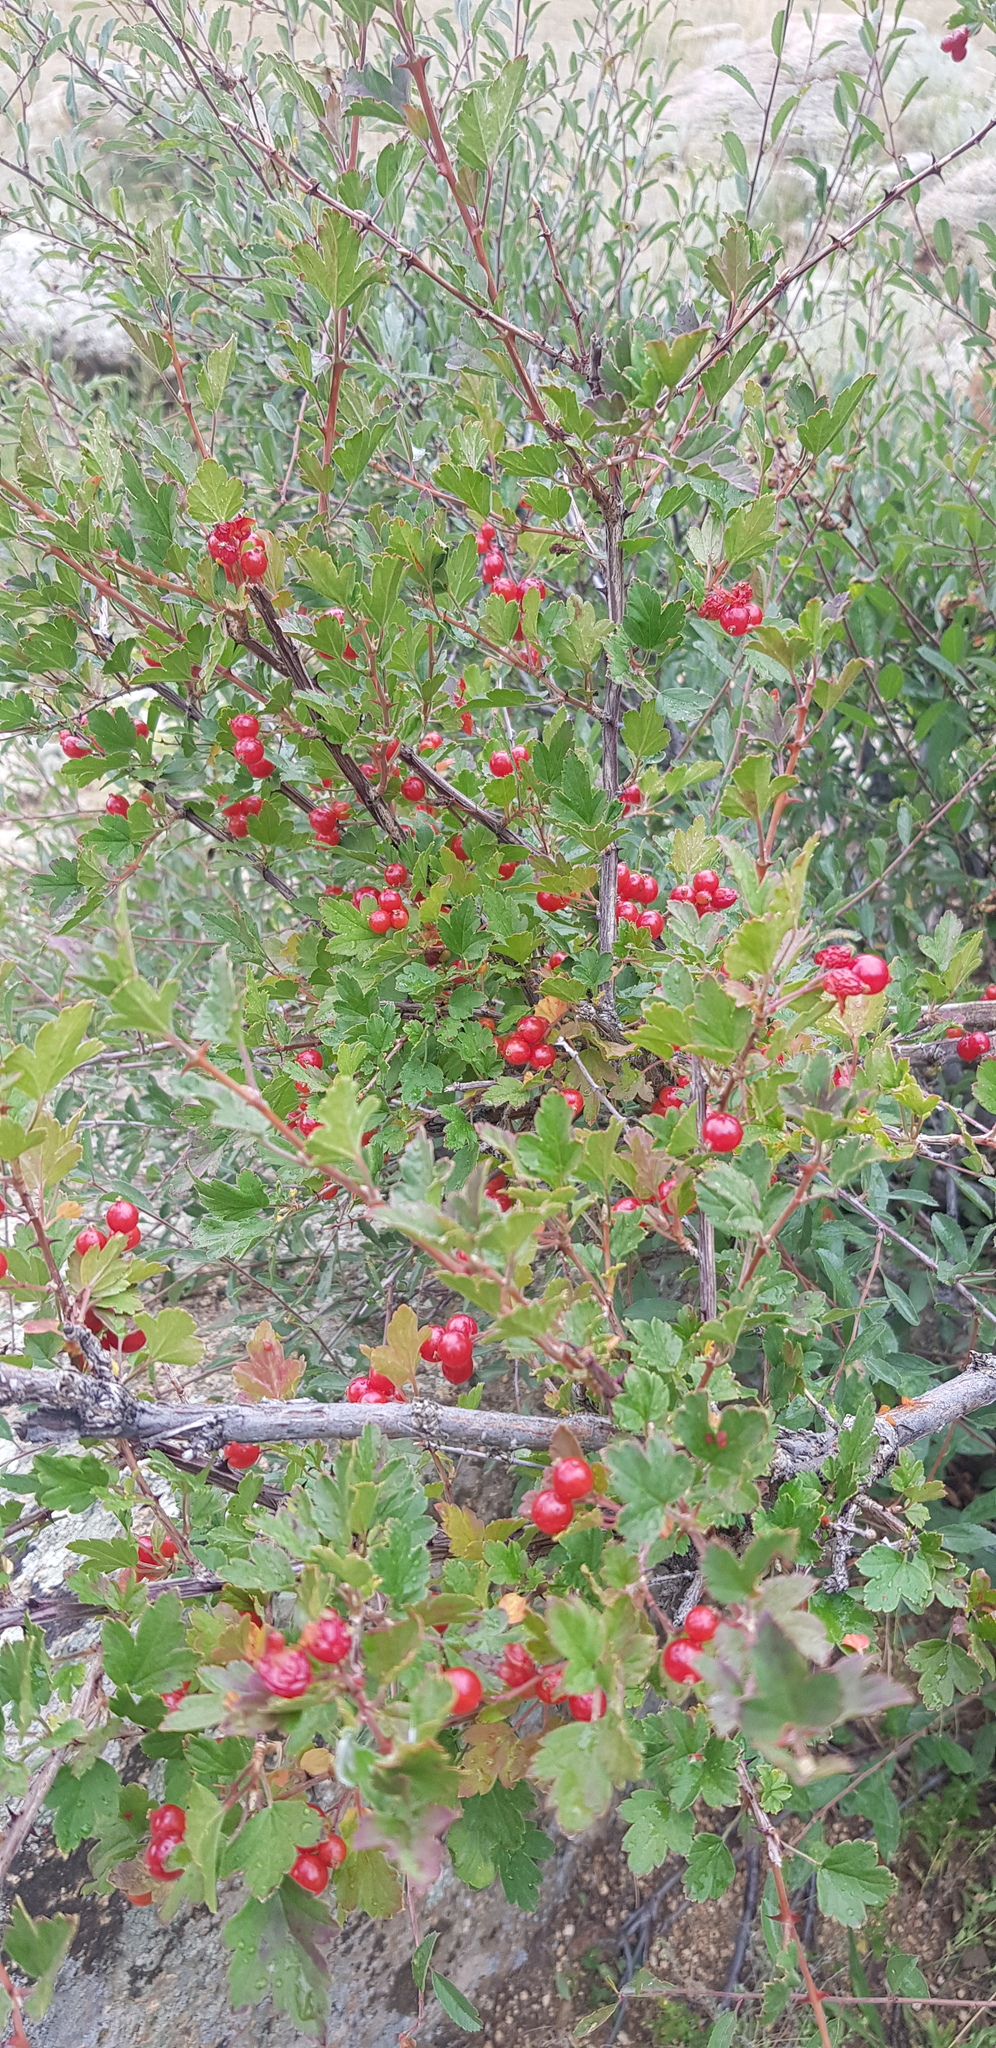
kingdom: Plantae
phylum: Tracheophyta
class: Magnoliopsida
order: Saxifragales
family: Grossulariaceae
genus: Ribes
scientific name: Ribes diacanthum
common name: Siberian currant
